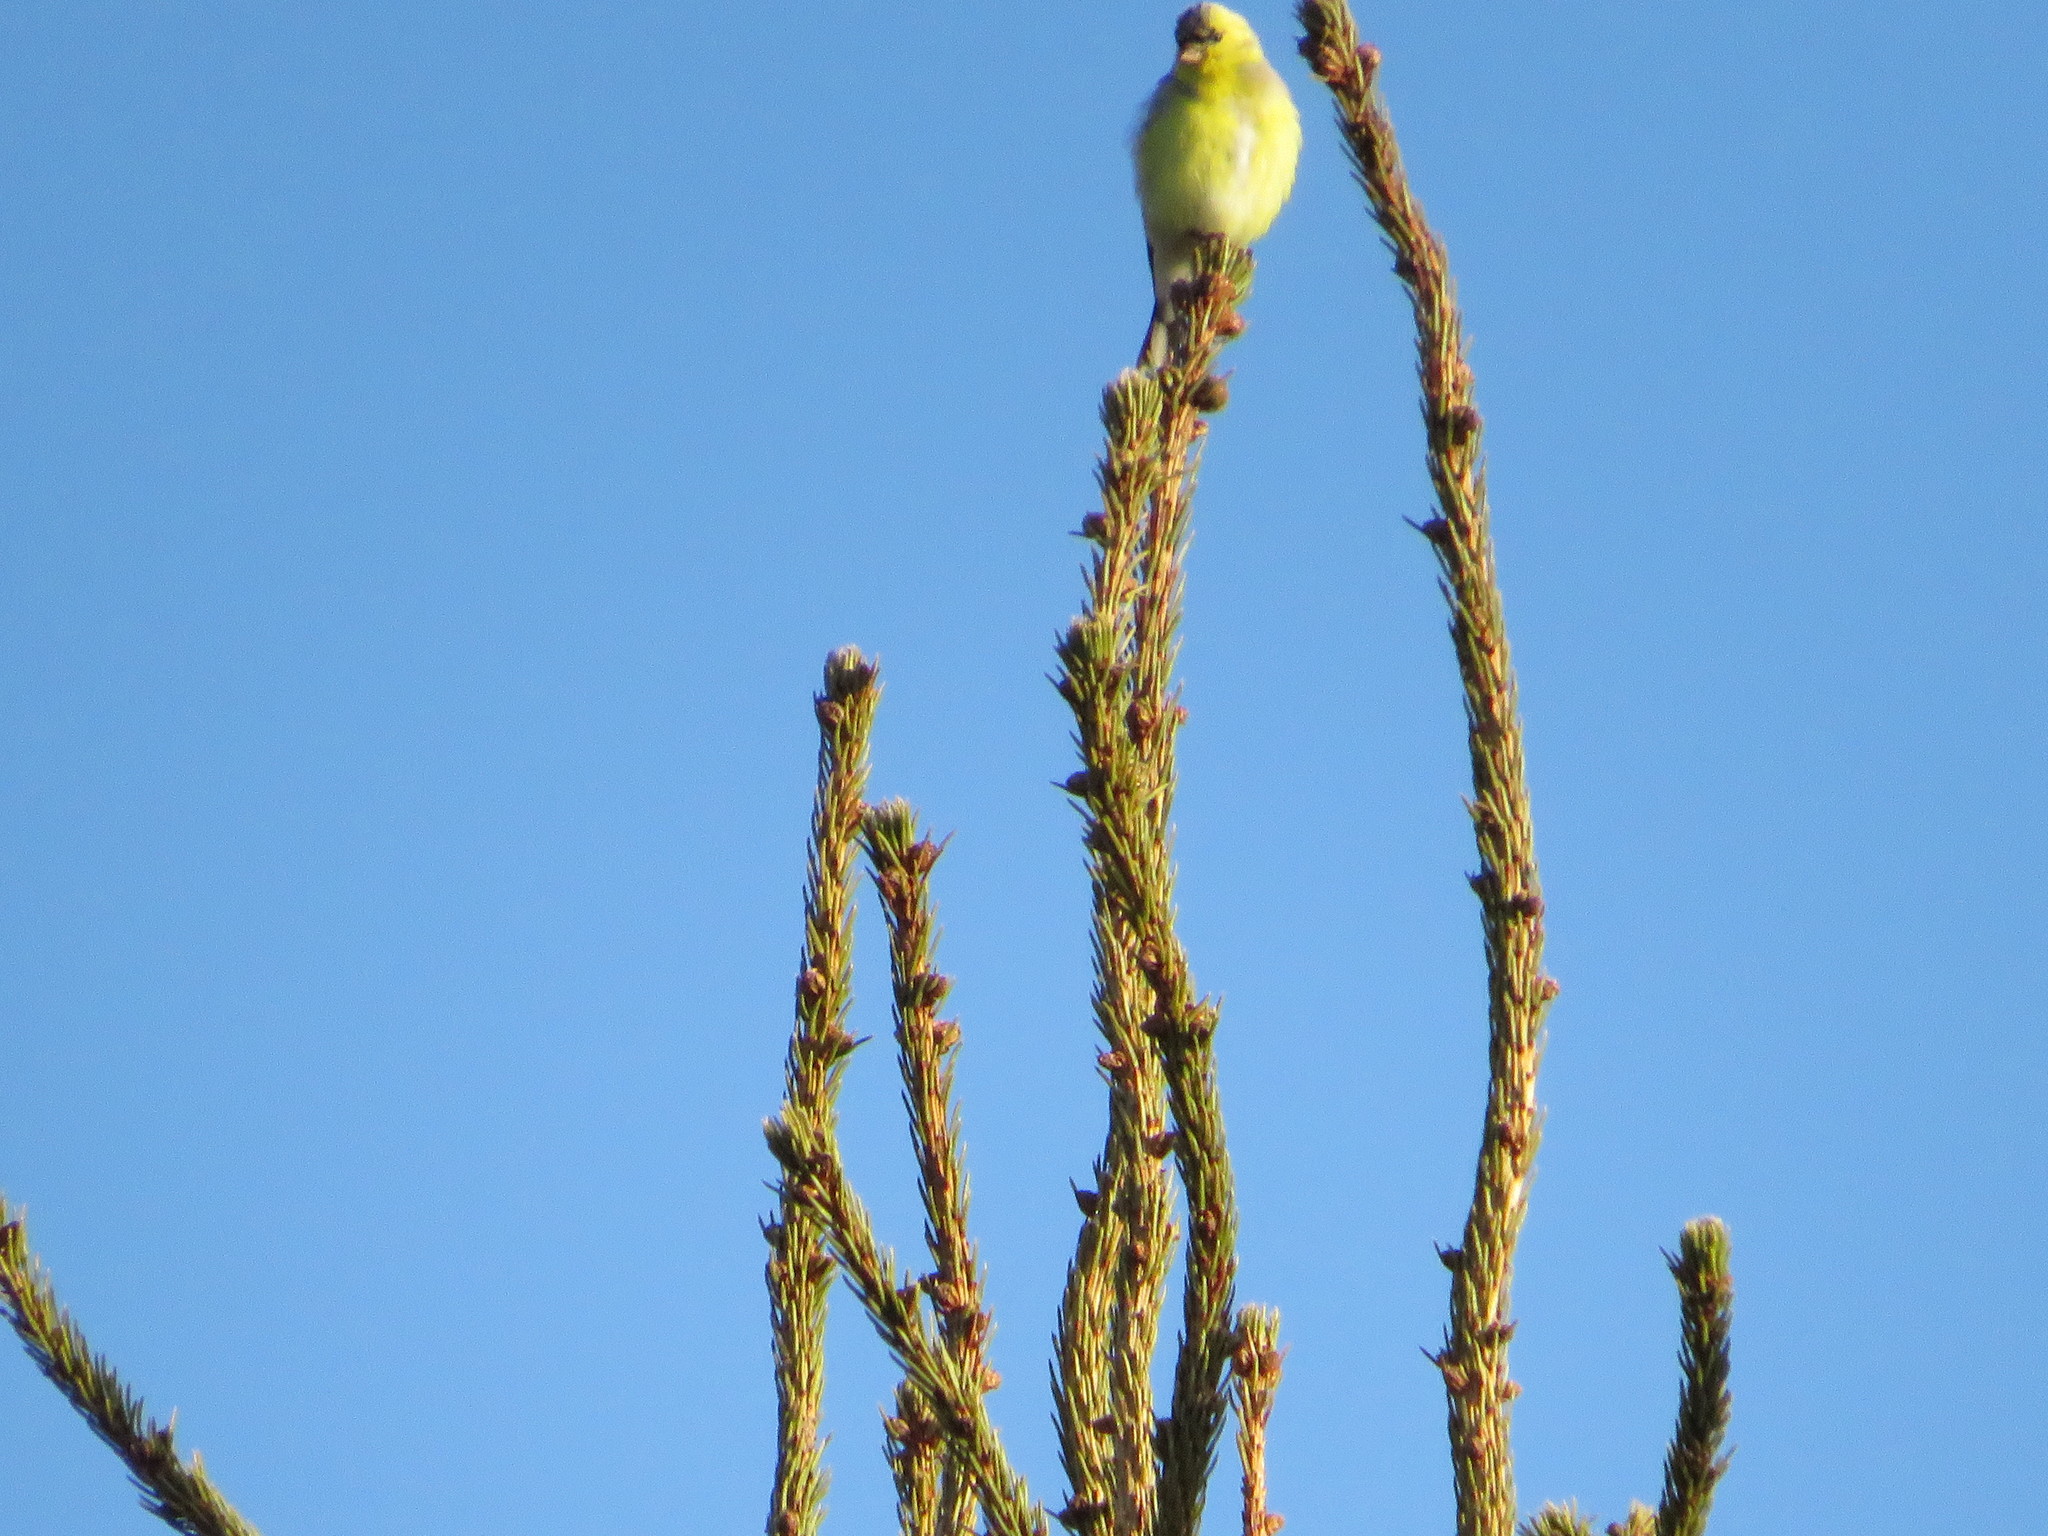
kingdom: Animalia
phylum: Chordata
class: Aves
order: Passeriformes
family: Fringillidae
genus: Spinus
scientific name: Spinus tristis
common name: American goldfinch
